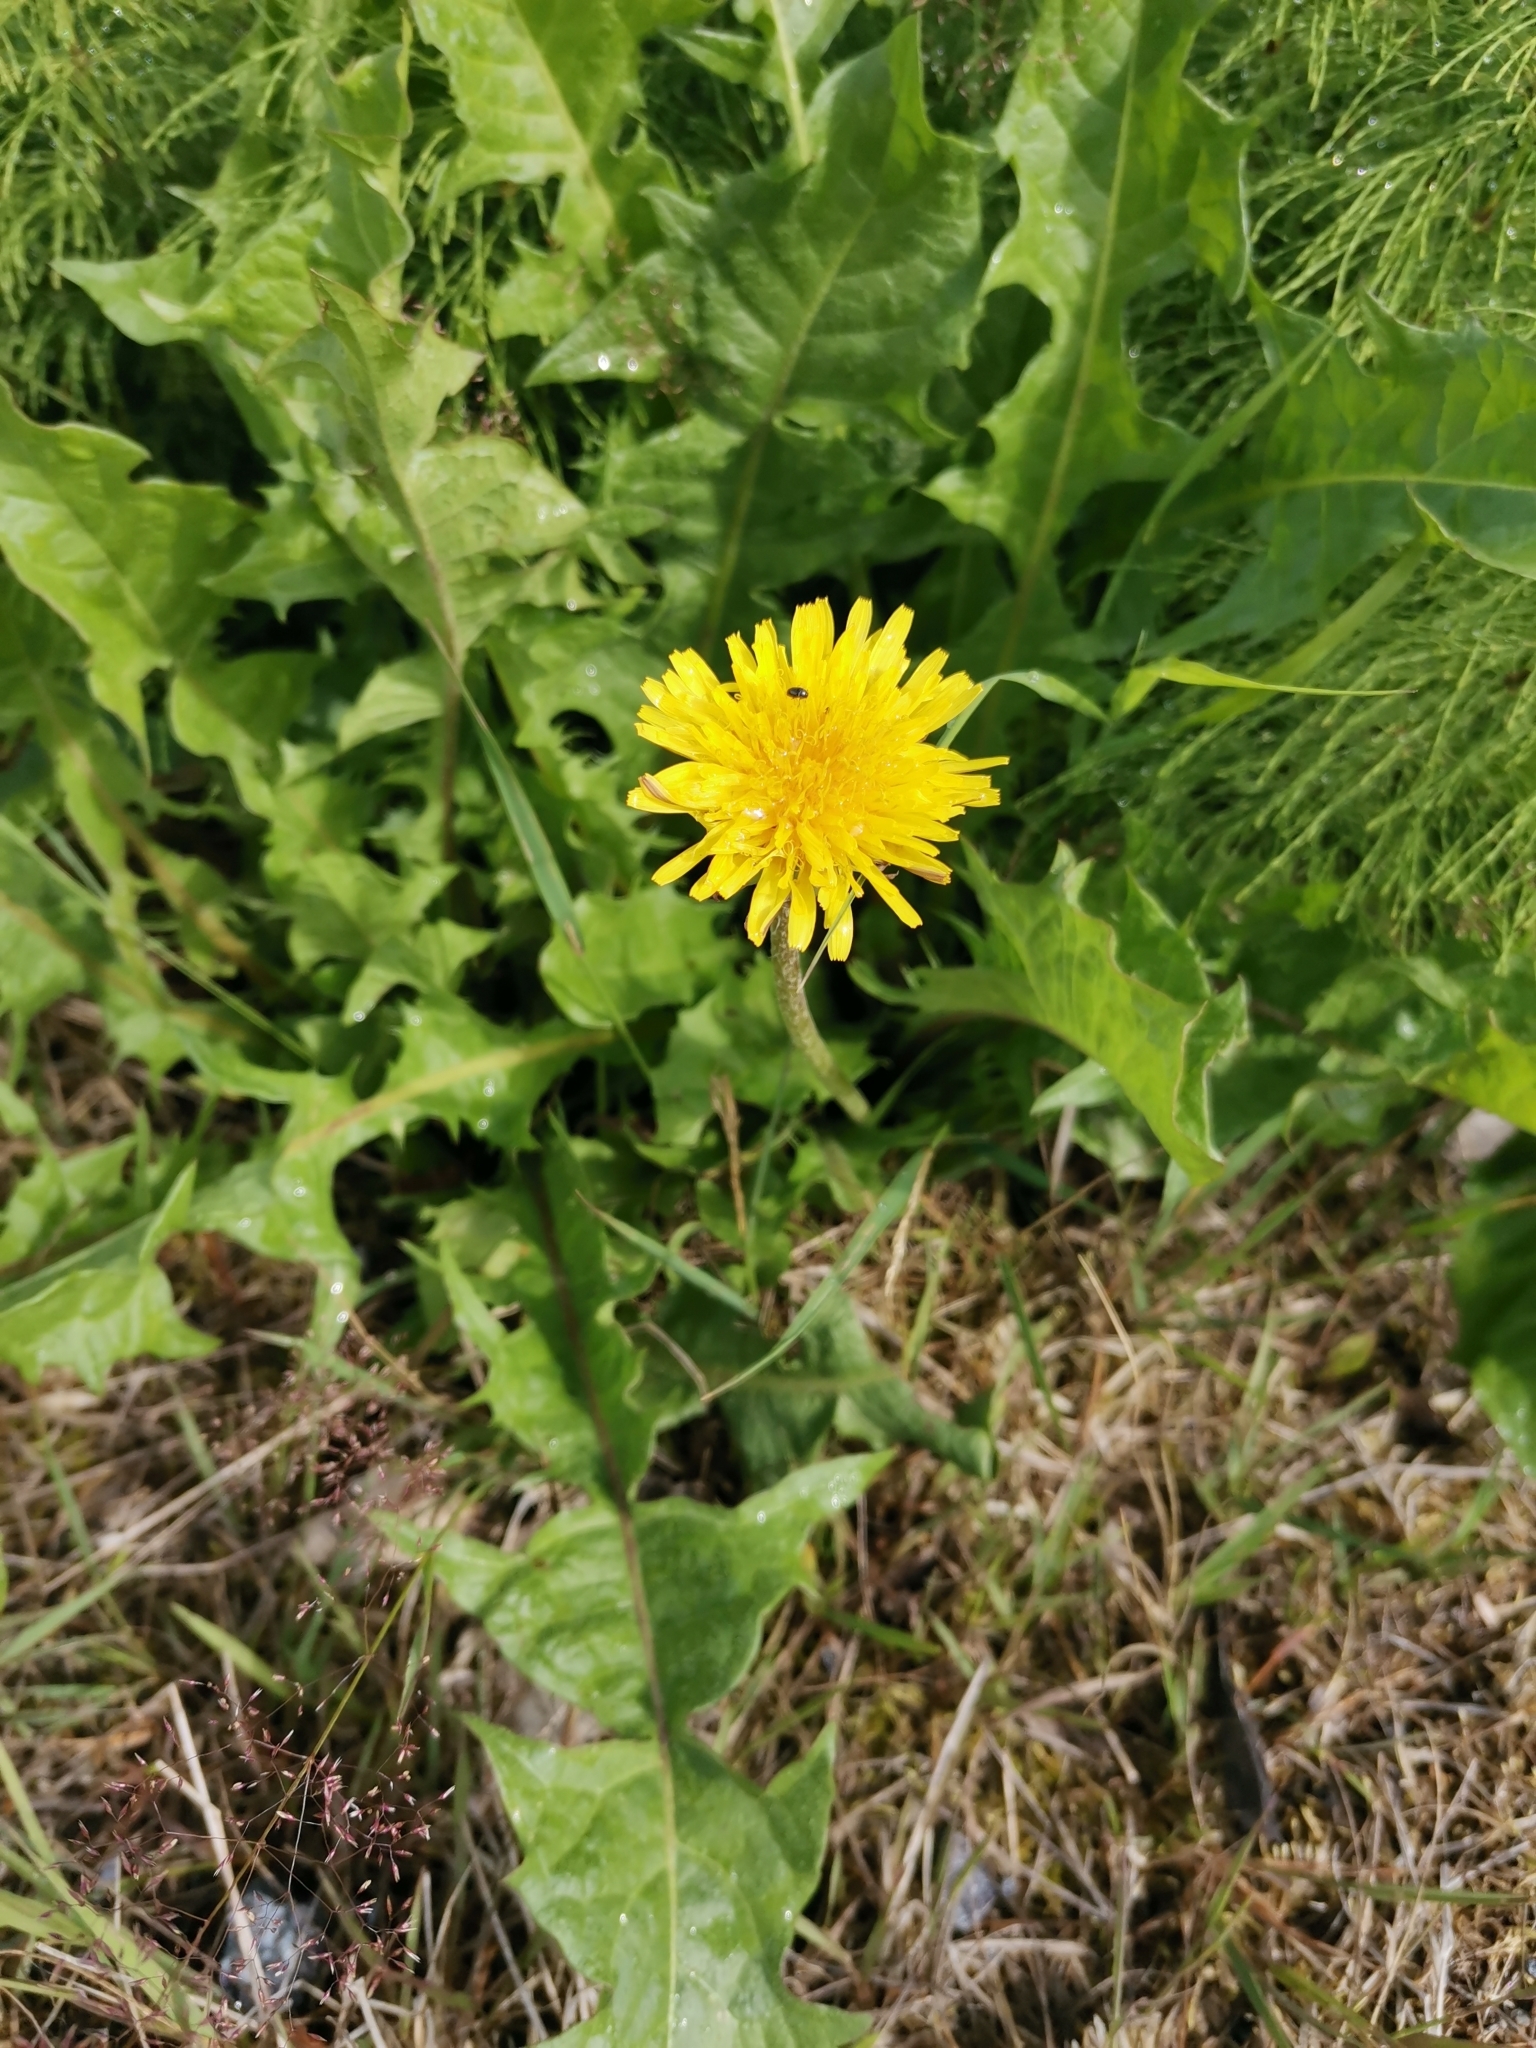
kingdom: Plantae
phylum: Tracheophyta
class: Magnoliopsida
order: Asterales
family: Asteraceae
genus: Taraxacum
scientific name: Taraxacum officinale
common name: Common dandelion
